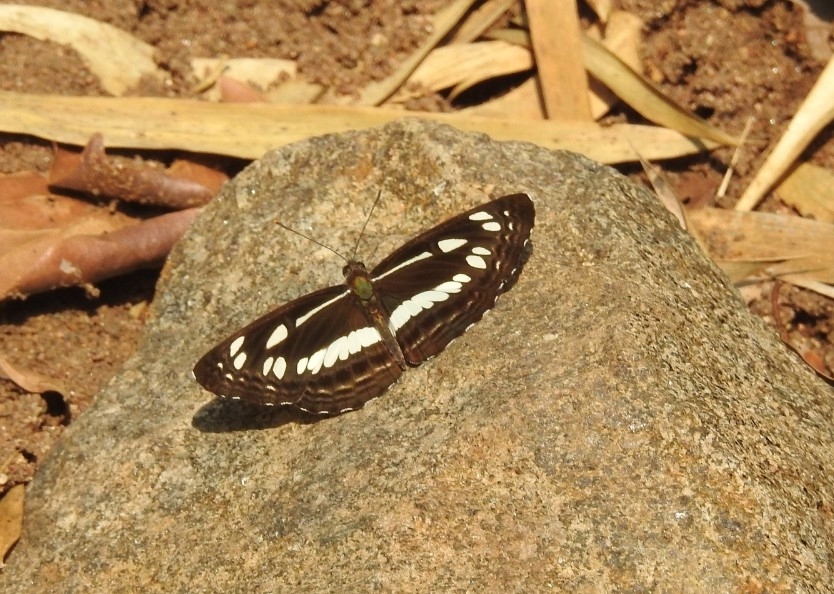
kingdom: Animalia
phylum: Arthropoda
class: Insecta
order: Lepidoptera
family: Nymphalidae
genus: Neptis
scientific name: Neptis jumbah
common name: Chestnut-streaked sailer
